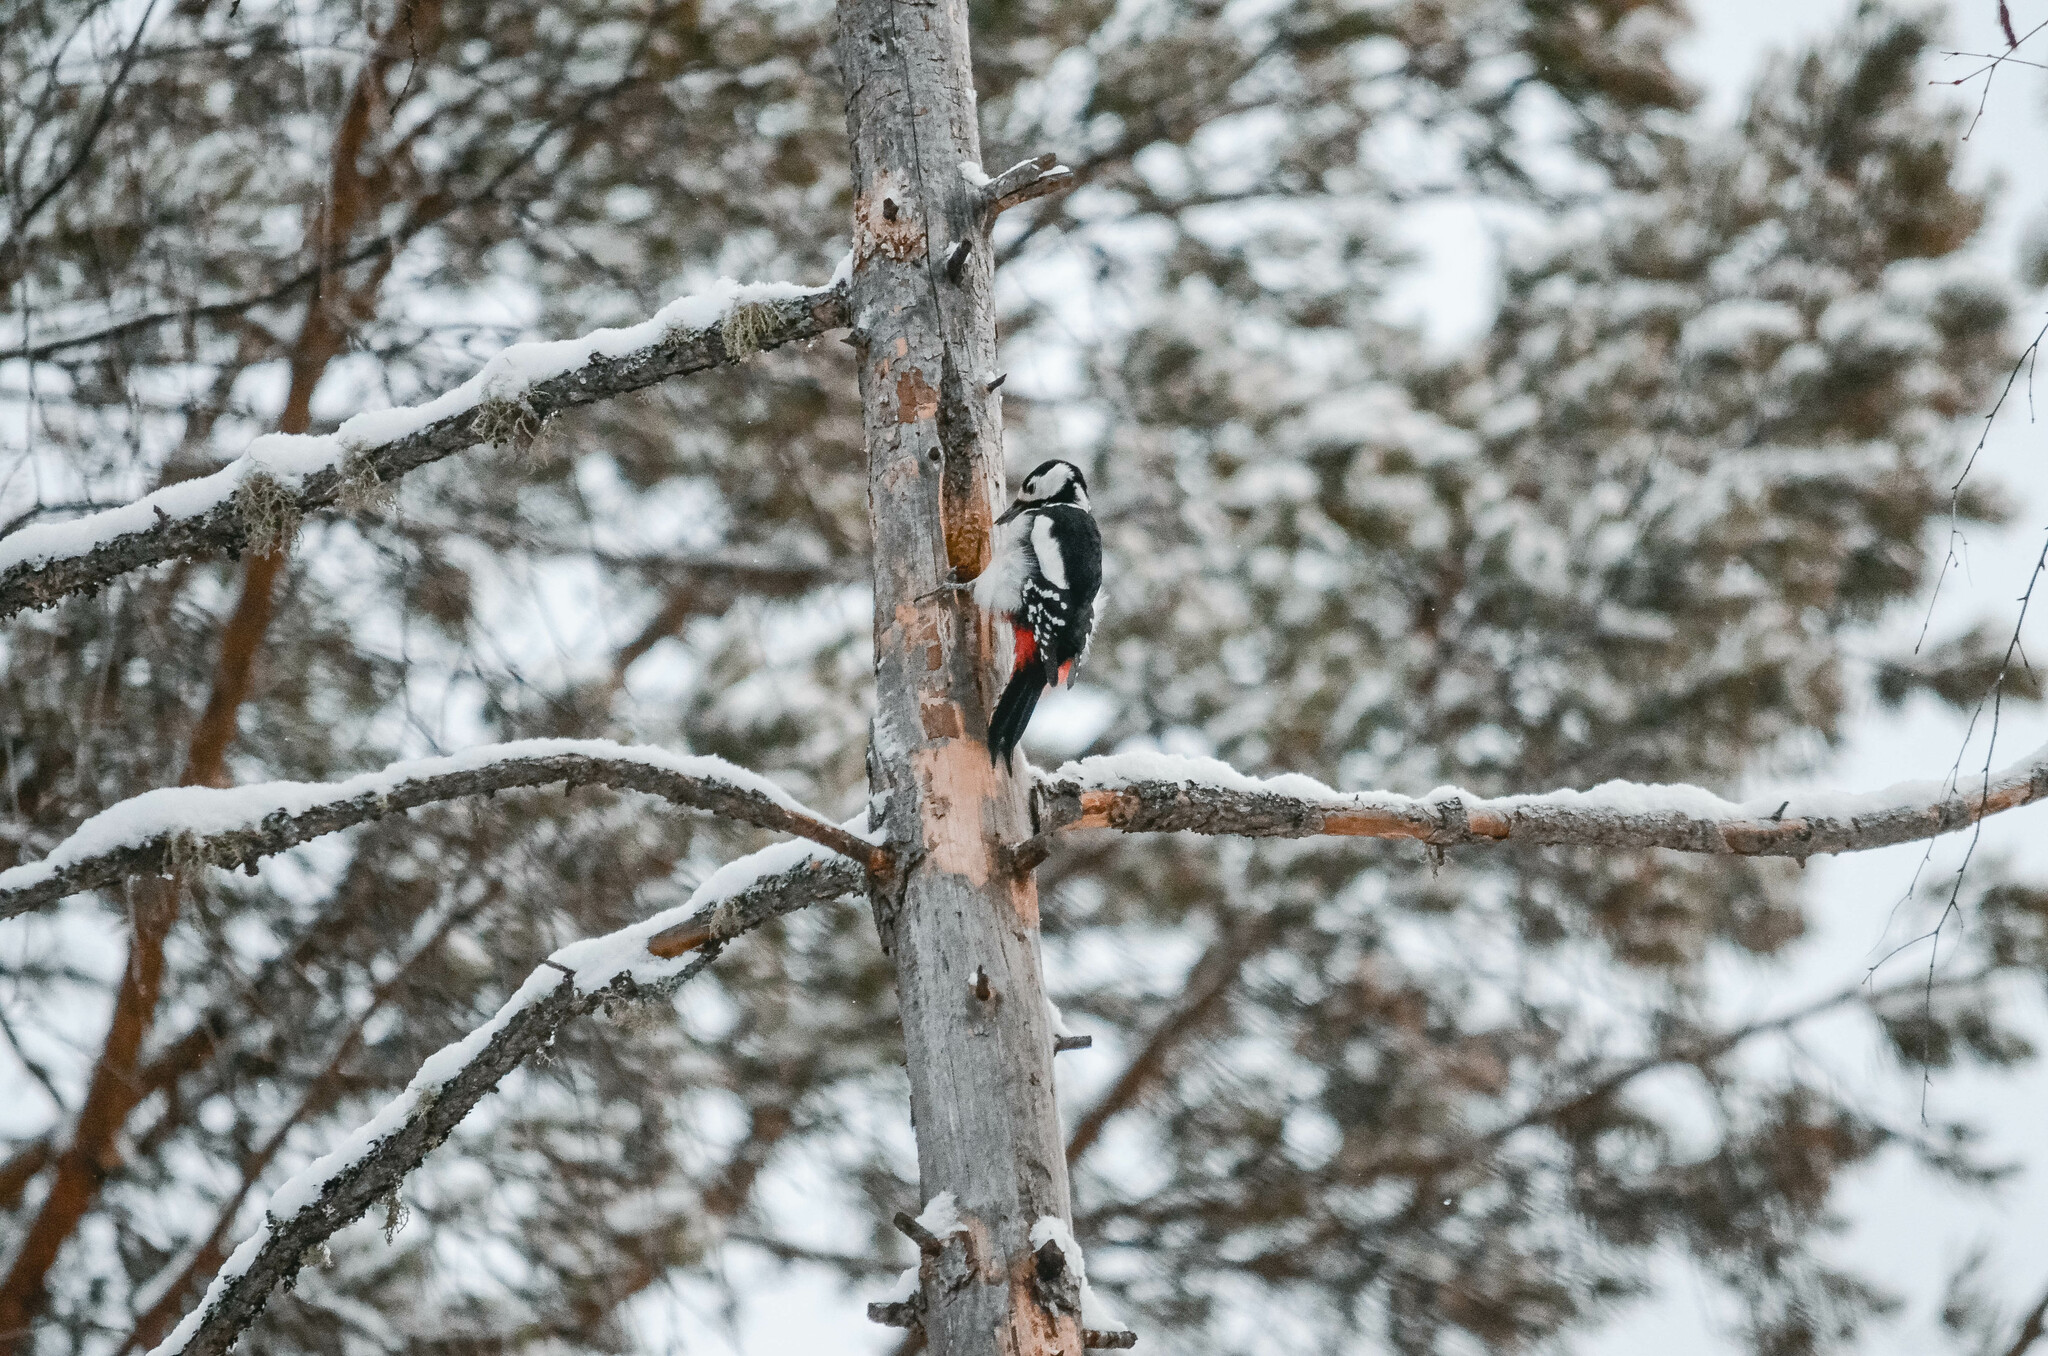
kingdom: Animalia
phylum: Chordata
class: Aves
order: Piciformes
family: Picidae
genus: Dendrocopos
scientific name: Dendrocopos major
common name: Great spotted woodpecker
